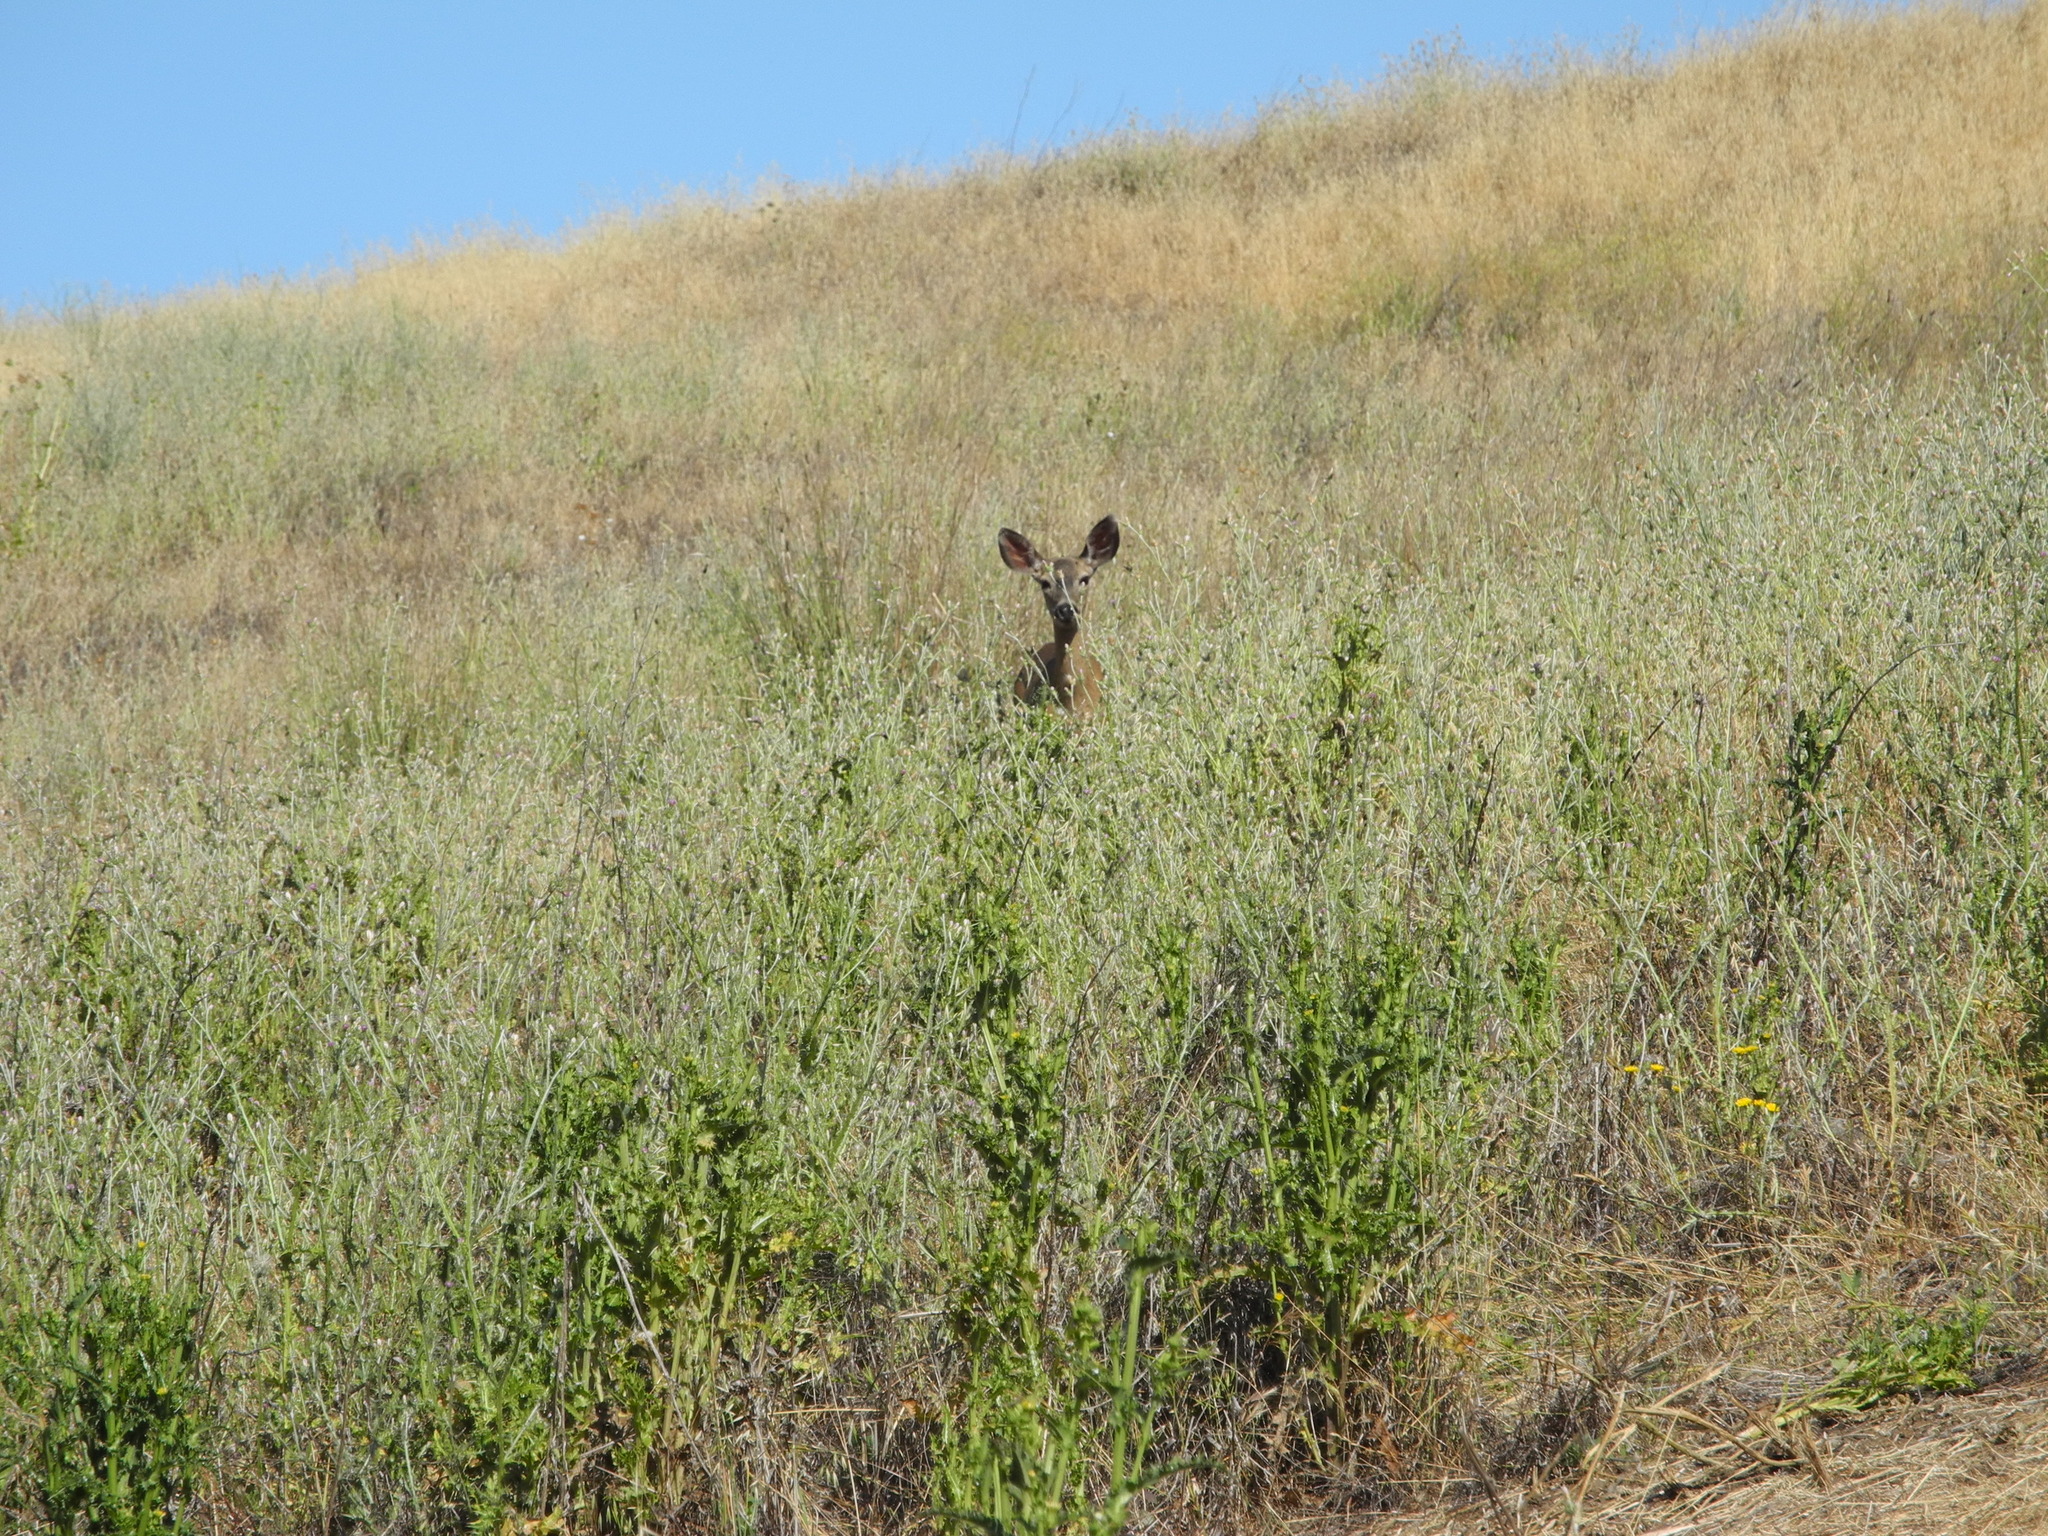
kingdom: Animalia
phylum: Chordata
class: Mammalia
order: Artiodactyla
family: Cervidae
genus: Odocoileus
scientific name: Odocoileus hemionus
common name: Mule deer
